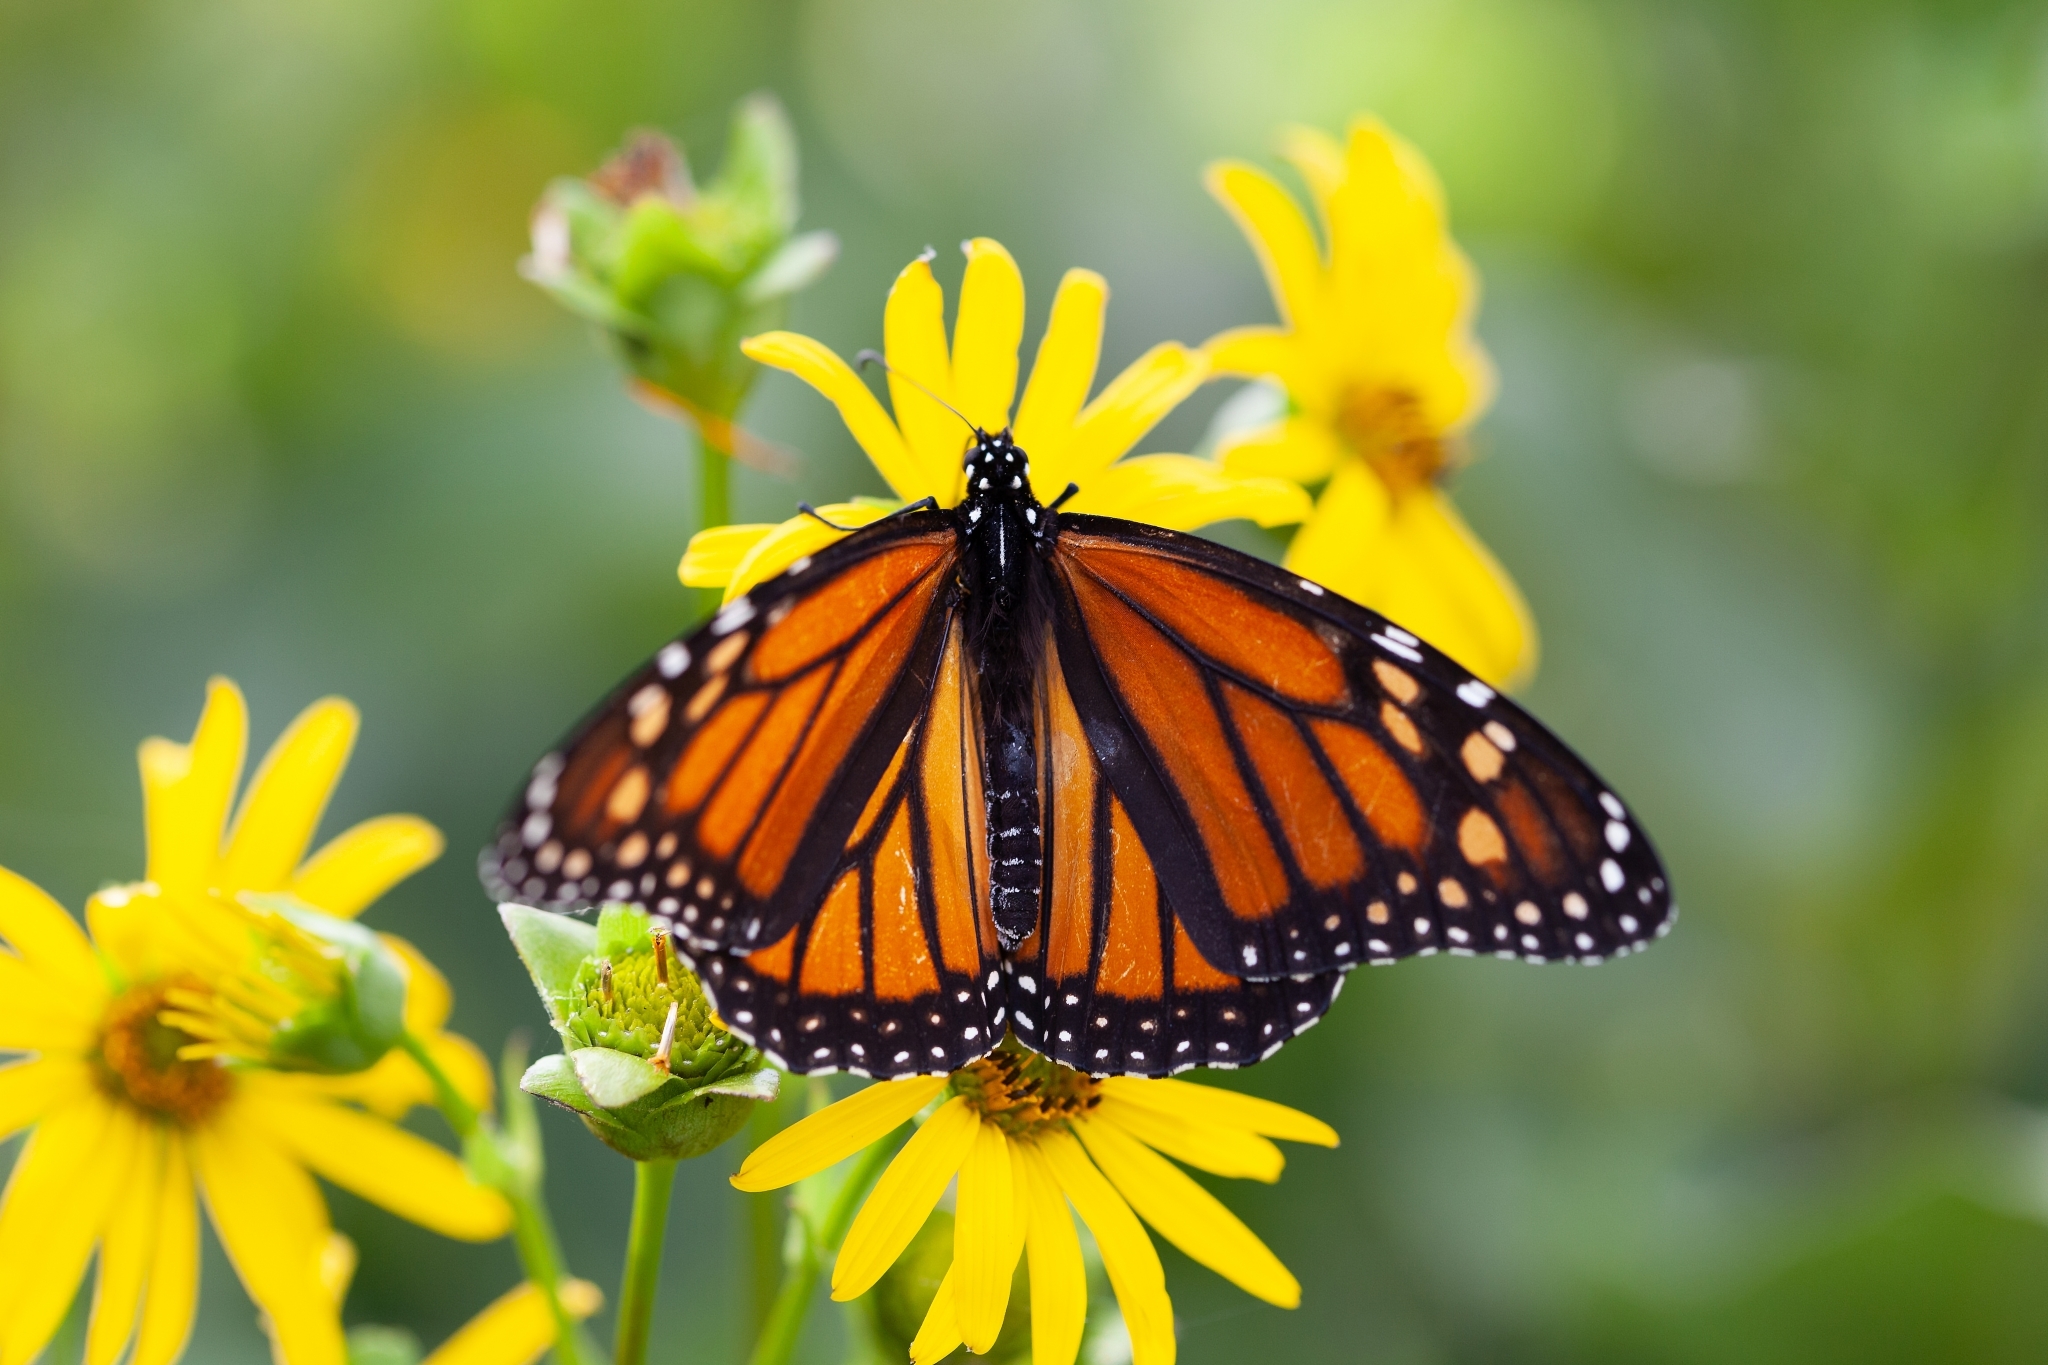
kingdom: Animalia
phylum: Arthropoda
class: Insecta
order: Lepidoptera
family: Nymphalidae
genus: Danaus
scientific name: Danaus plexippus
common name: Monarch
